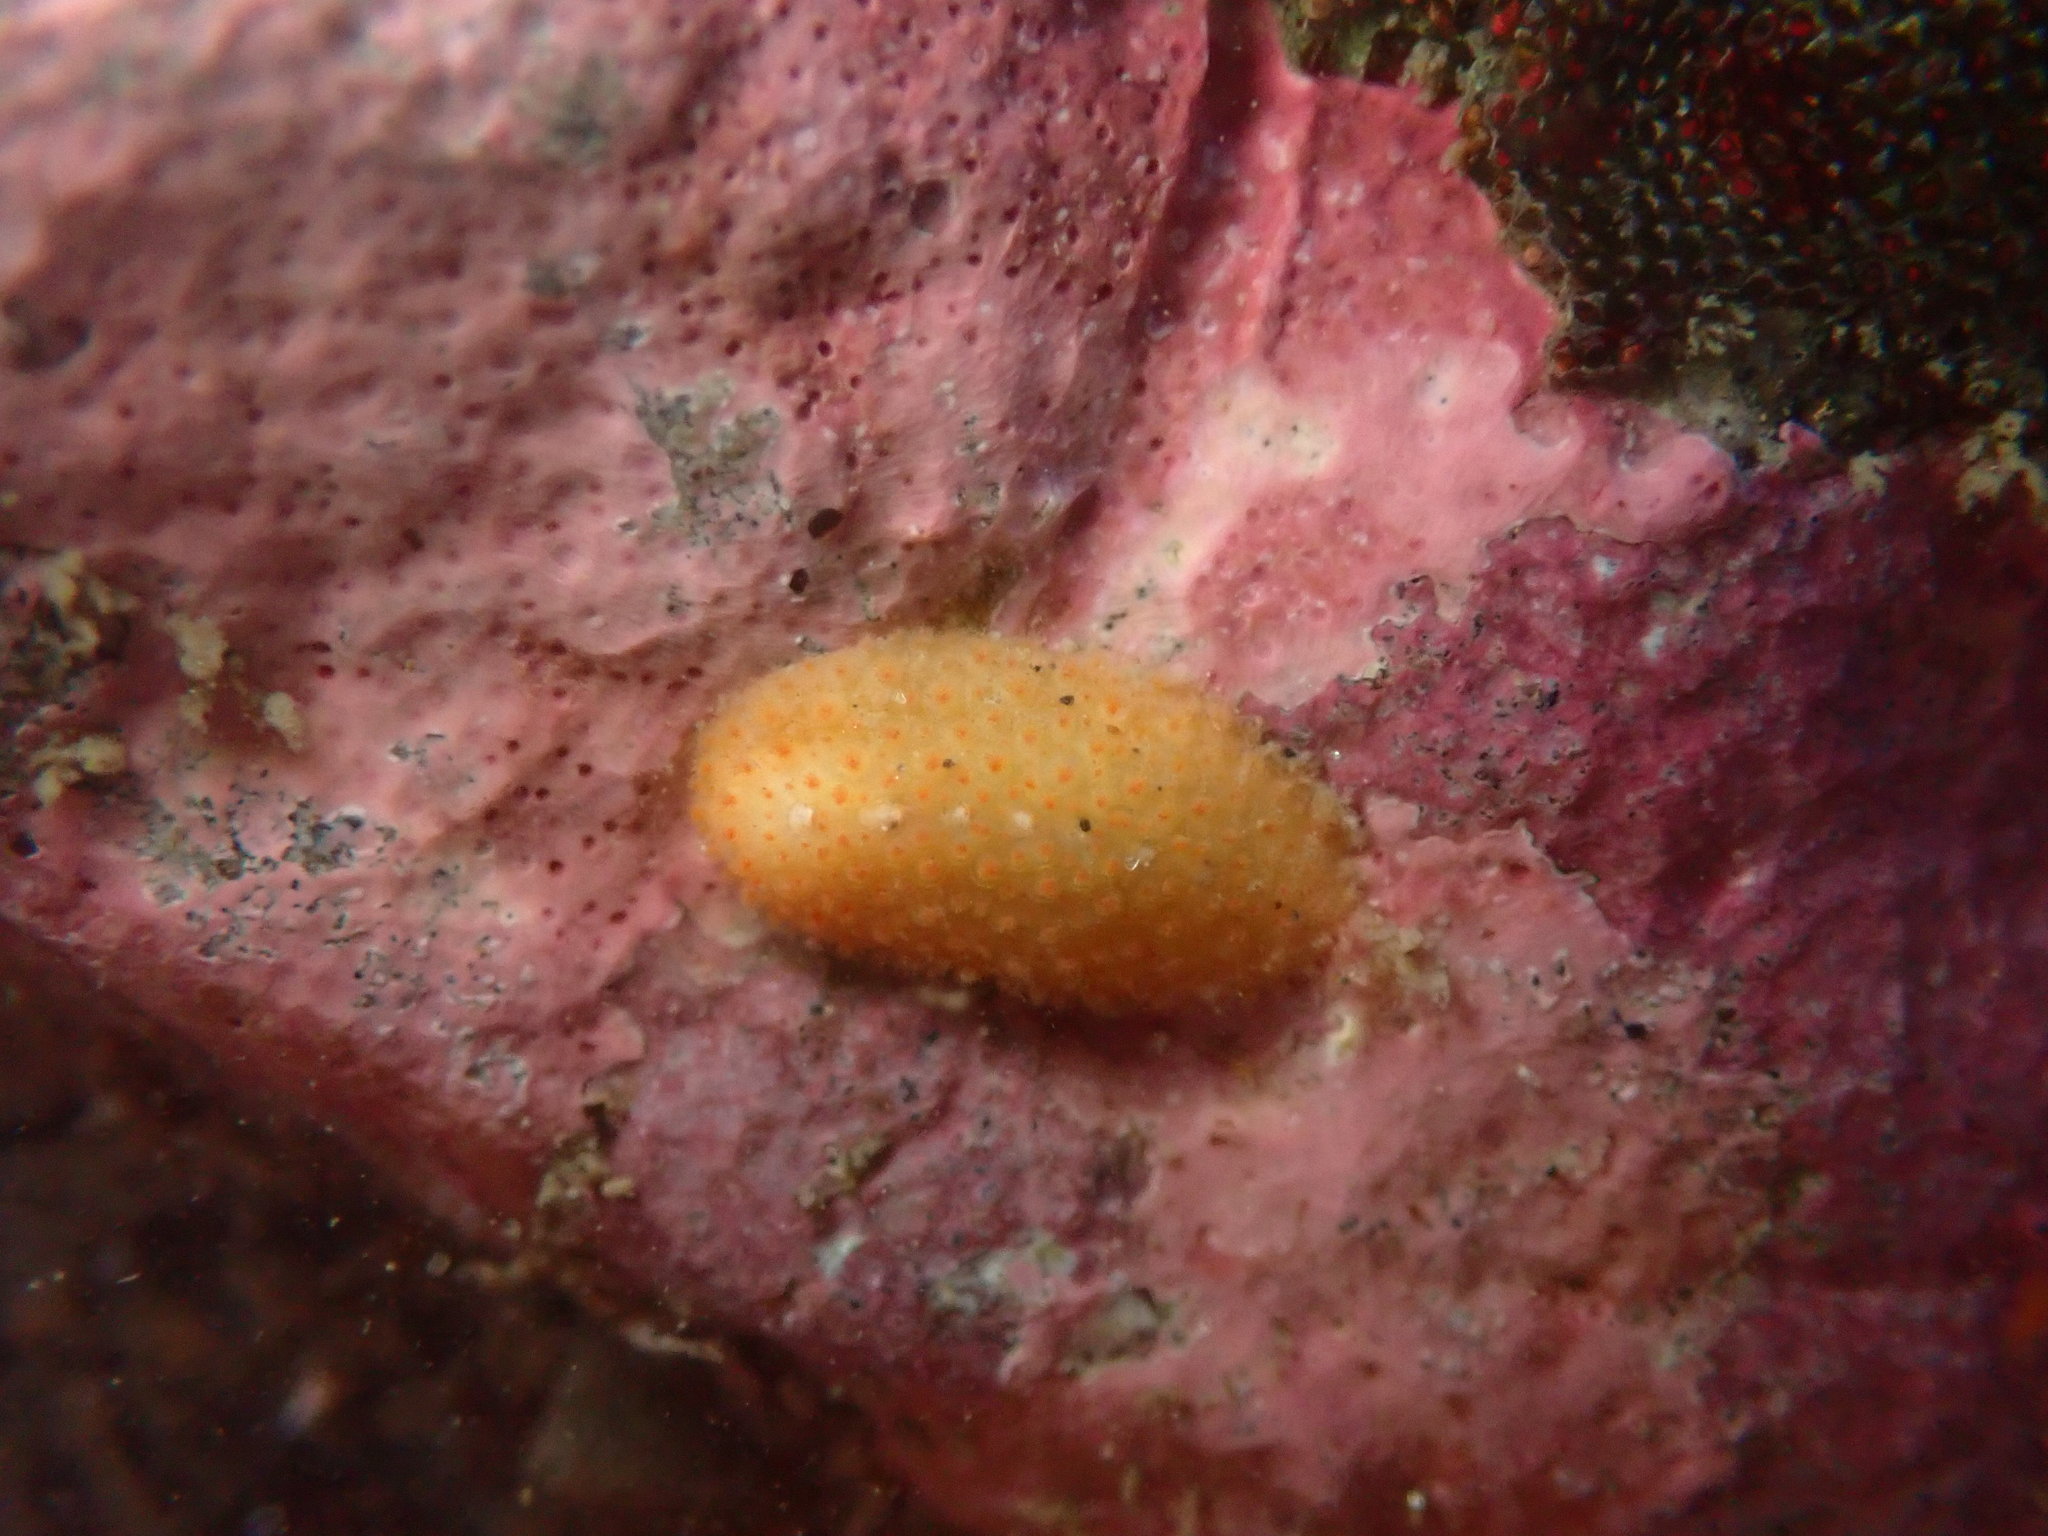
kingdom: Animalia
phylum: Mollusca
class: Polyplacophora
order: Chitonida
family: Acanthochitonidae
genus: Cryptochiton
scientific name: Cryptochiton stelleri
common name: Giant pacific chiton
